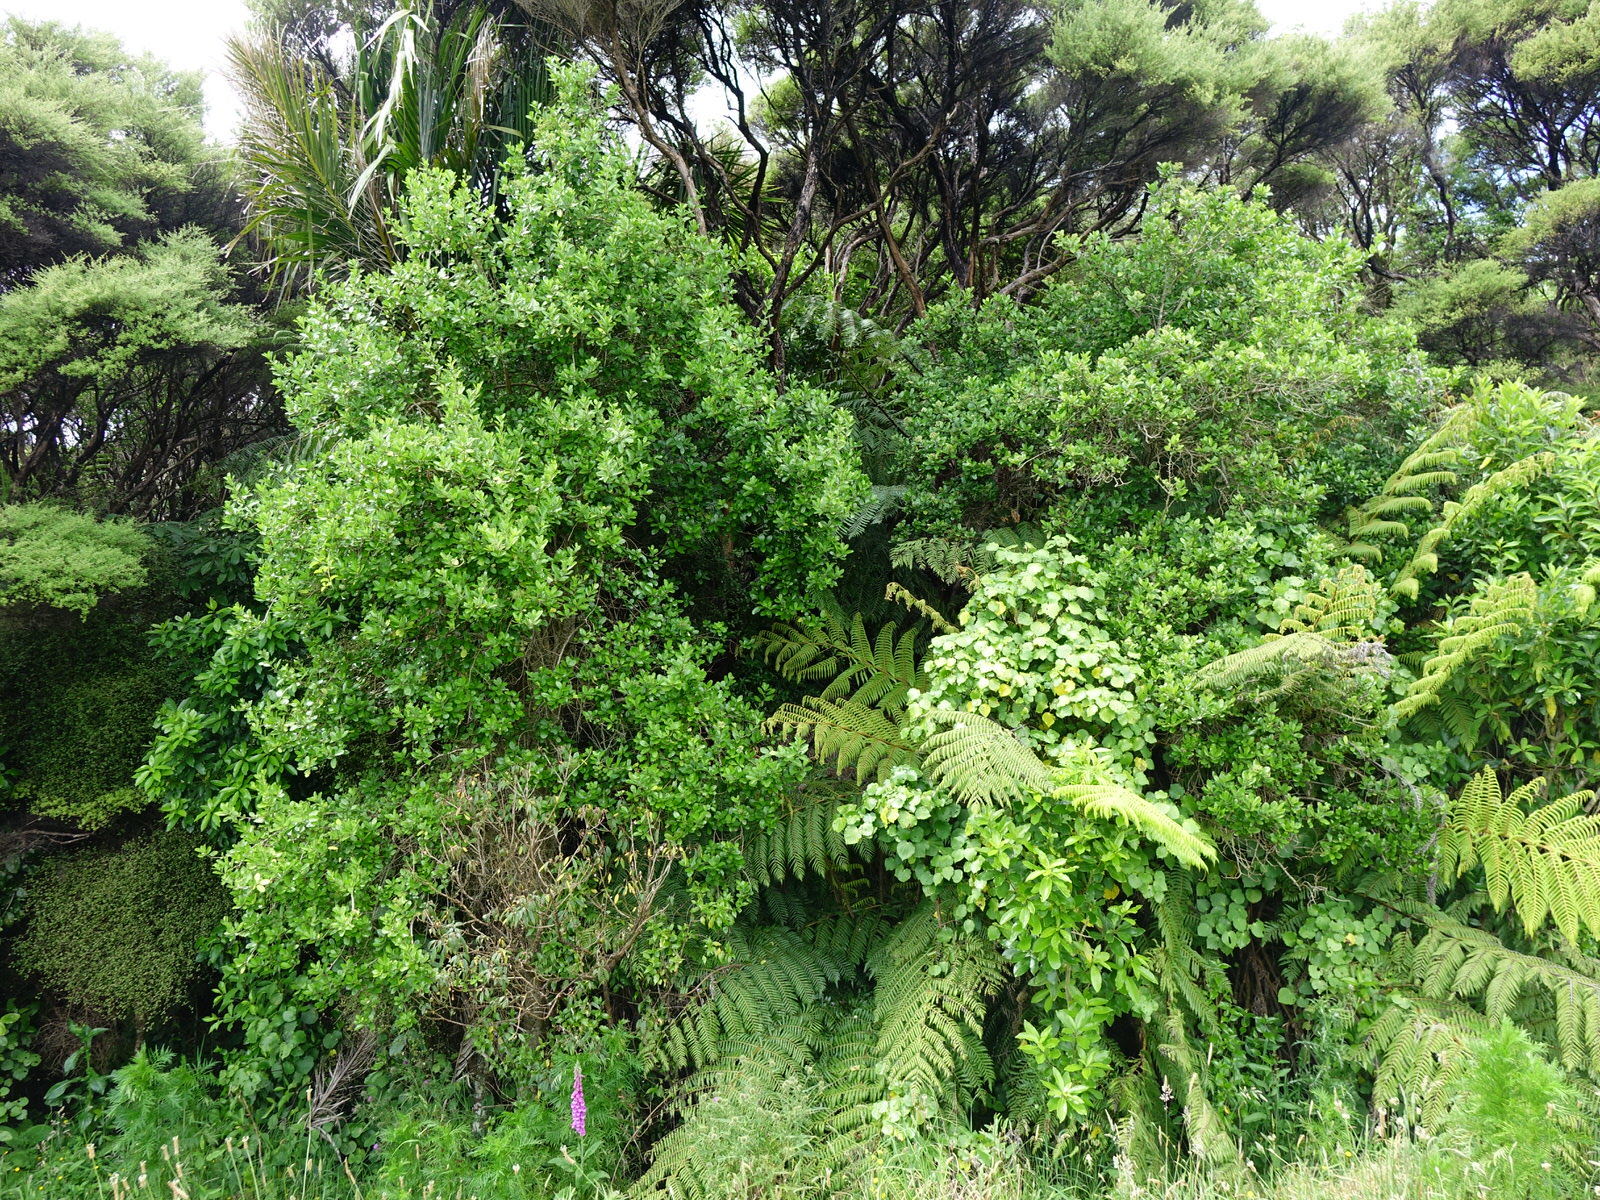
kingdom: Plantae
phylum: Tracheophyta
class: Magnoliopsida
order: Apiales
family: Pennantiaceae
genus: Pennantia
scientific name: Pennantia corymbosa
